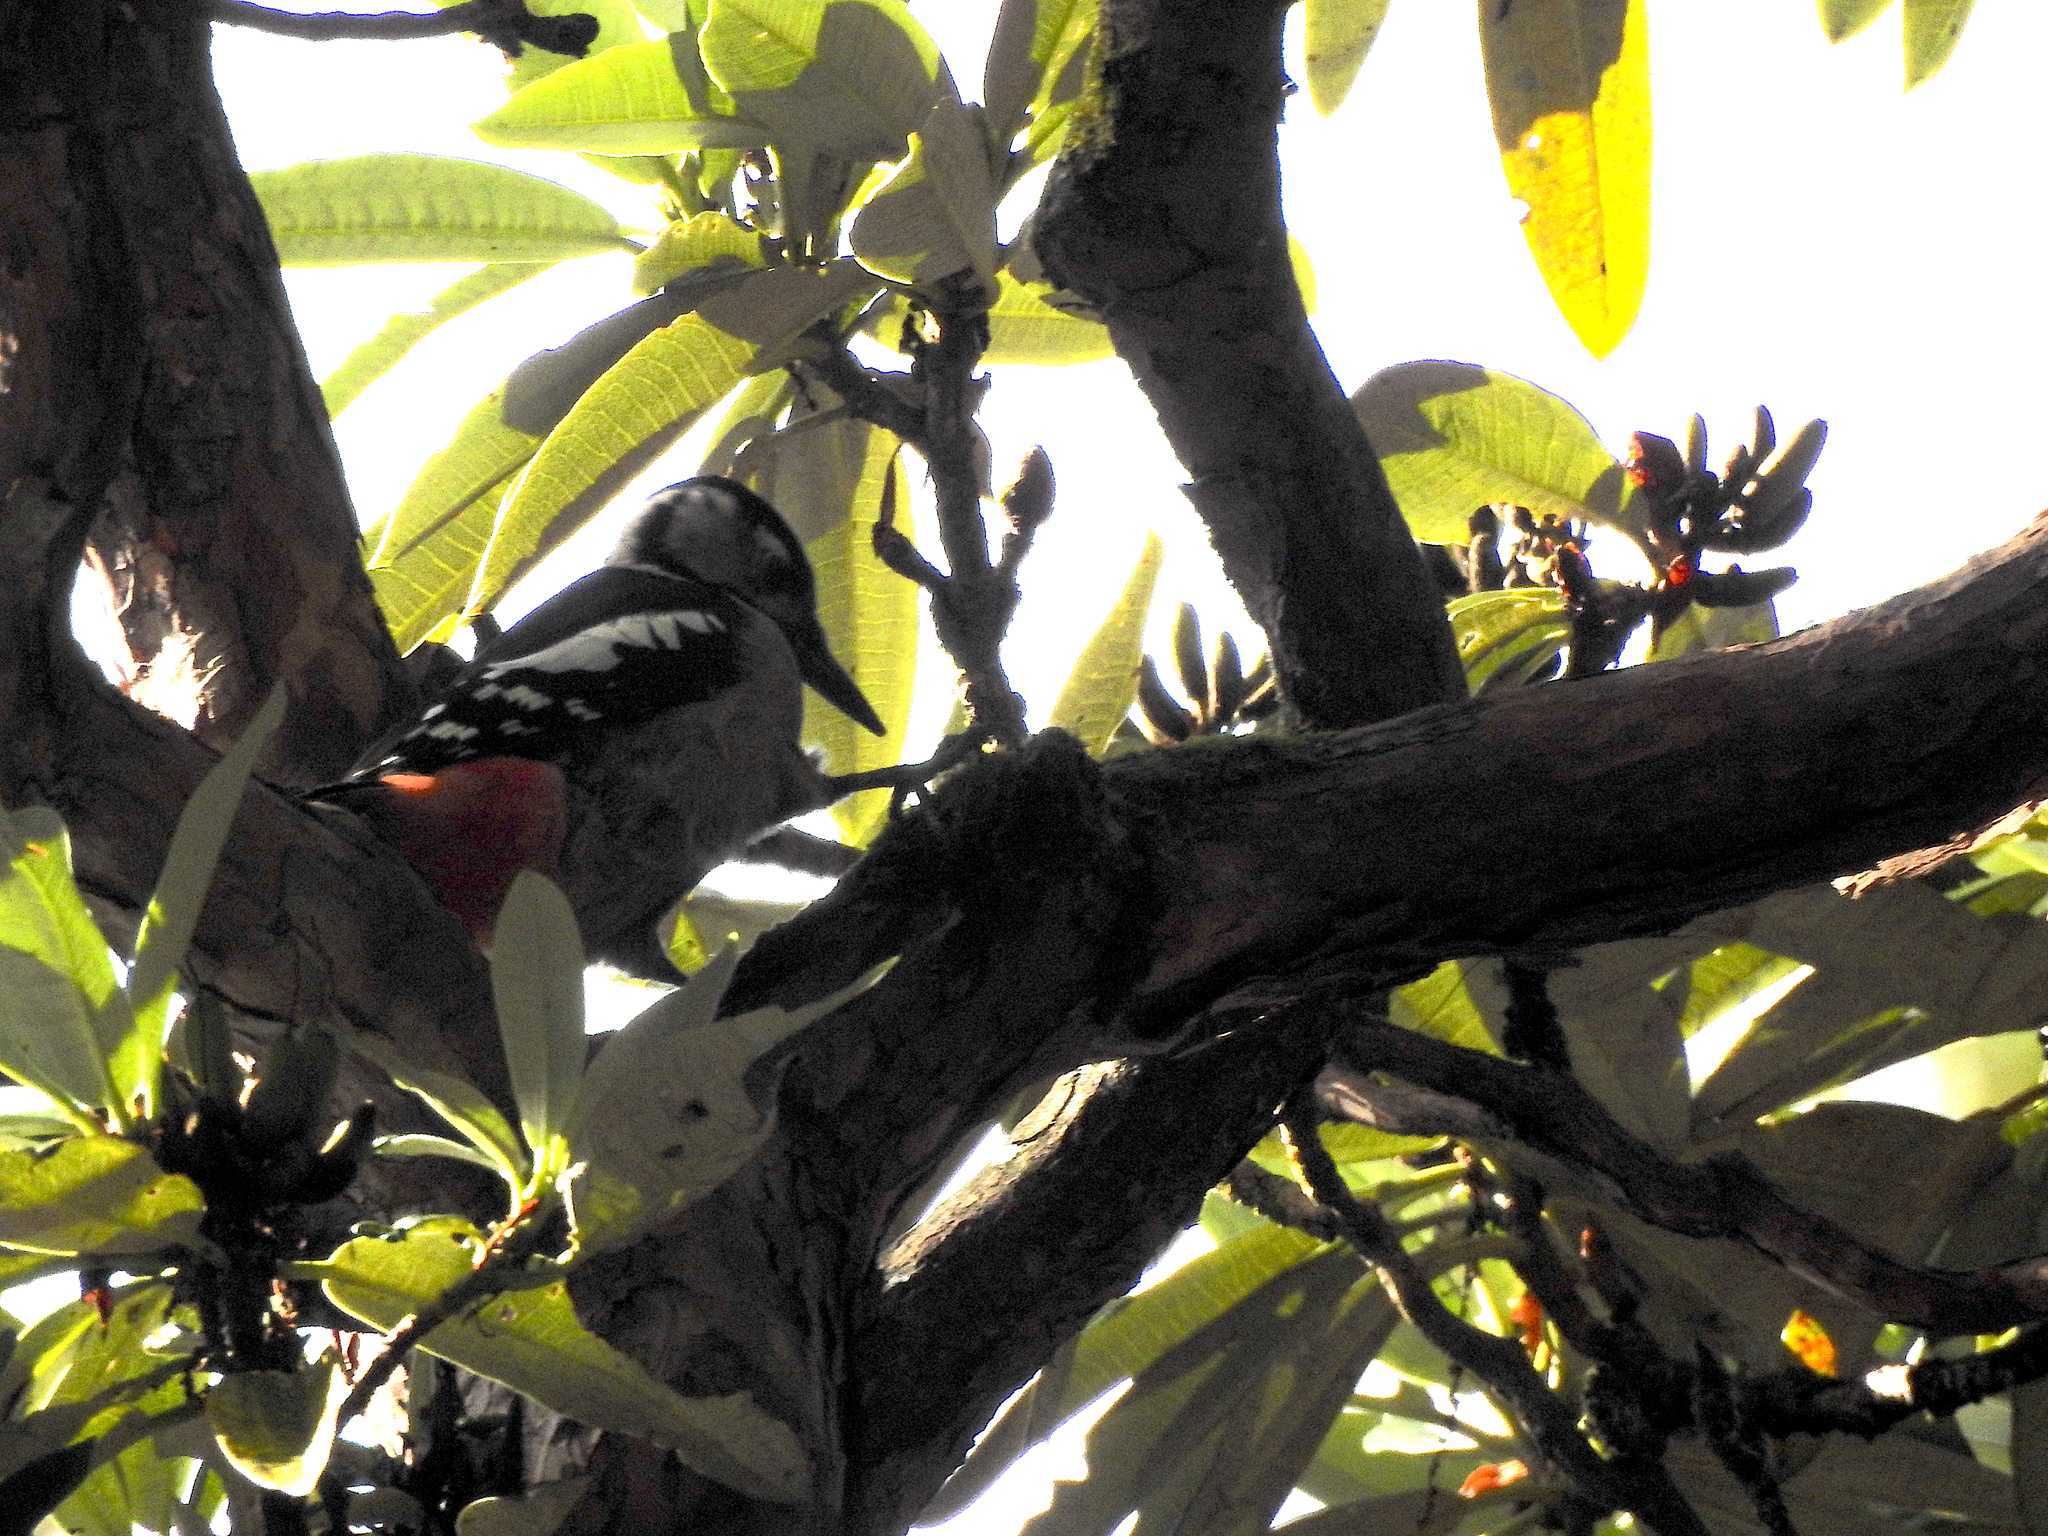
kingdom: Animalia
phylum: Chordata
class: Aves
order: Piciformes
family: Picidae
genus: Dendrocopos
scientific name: Dendrocopos himalayensis
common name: Himalayan woodpecker
